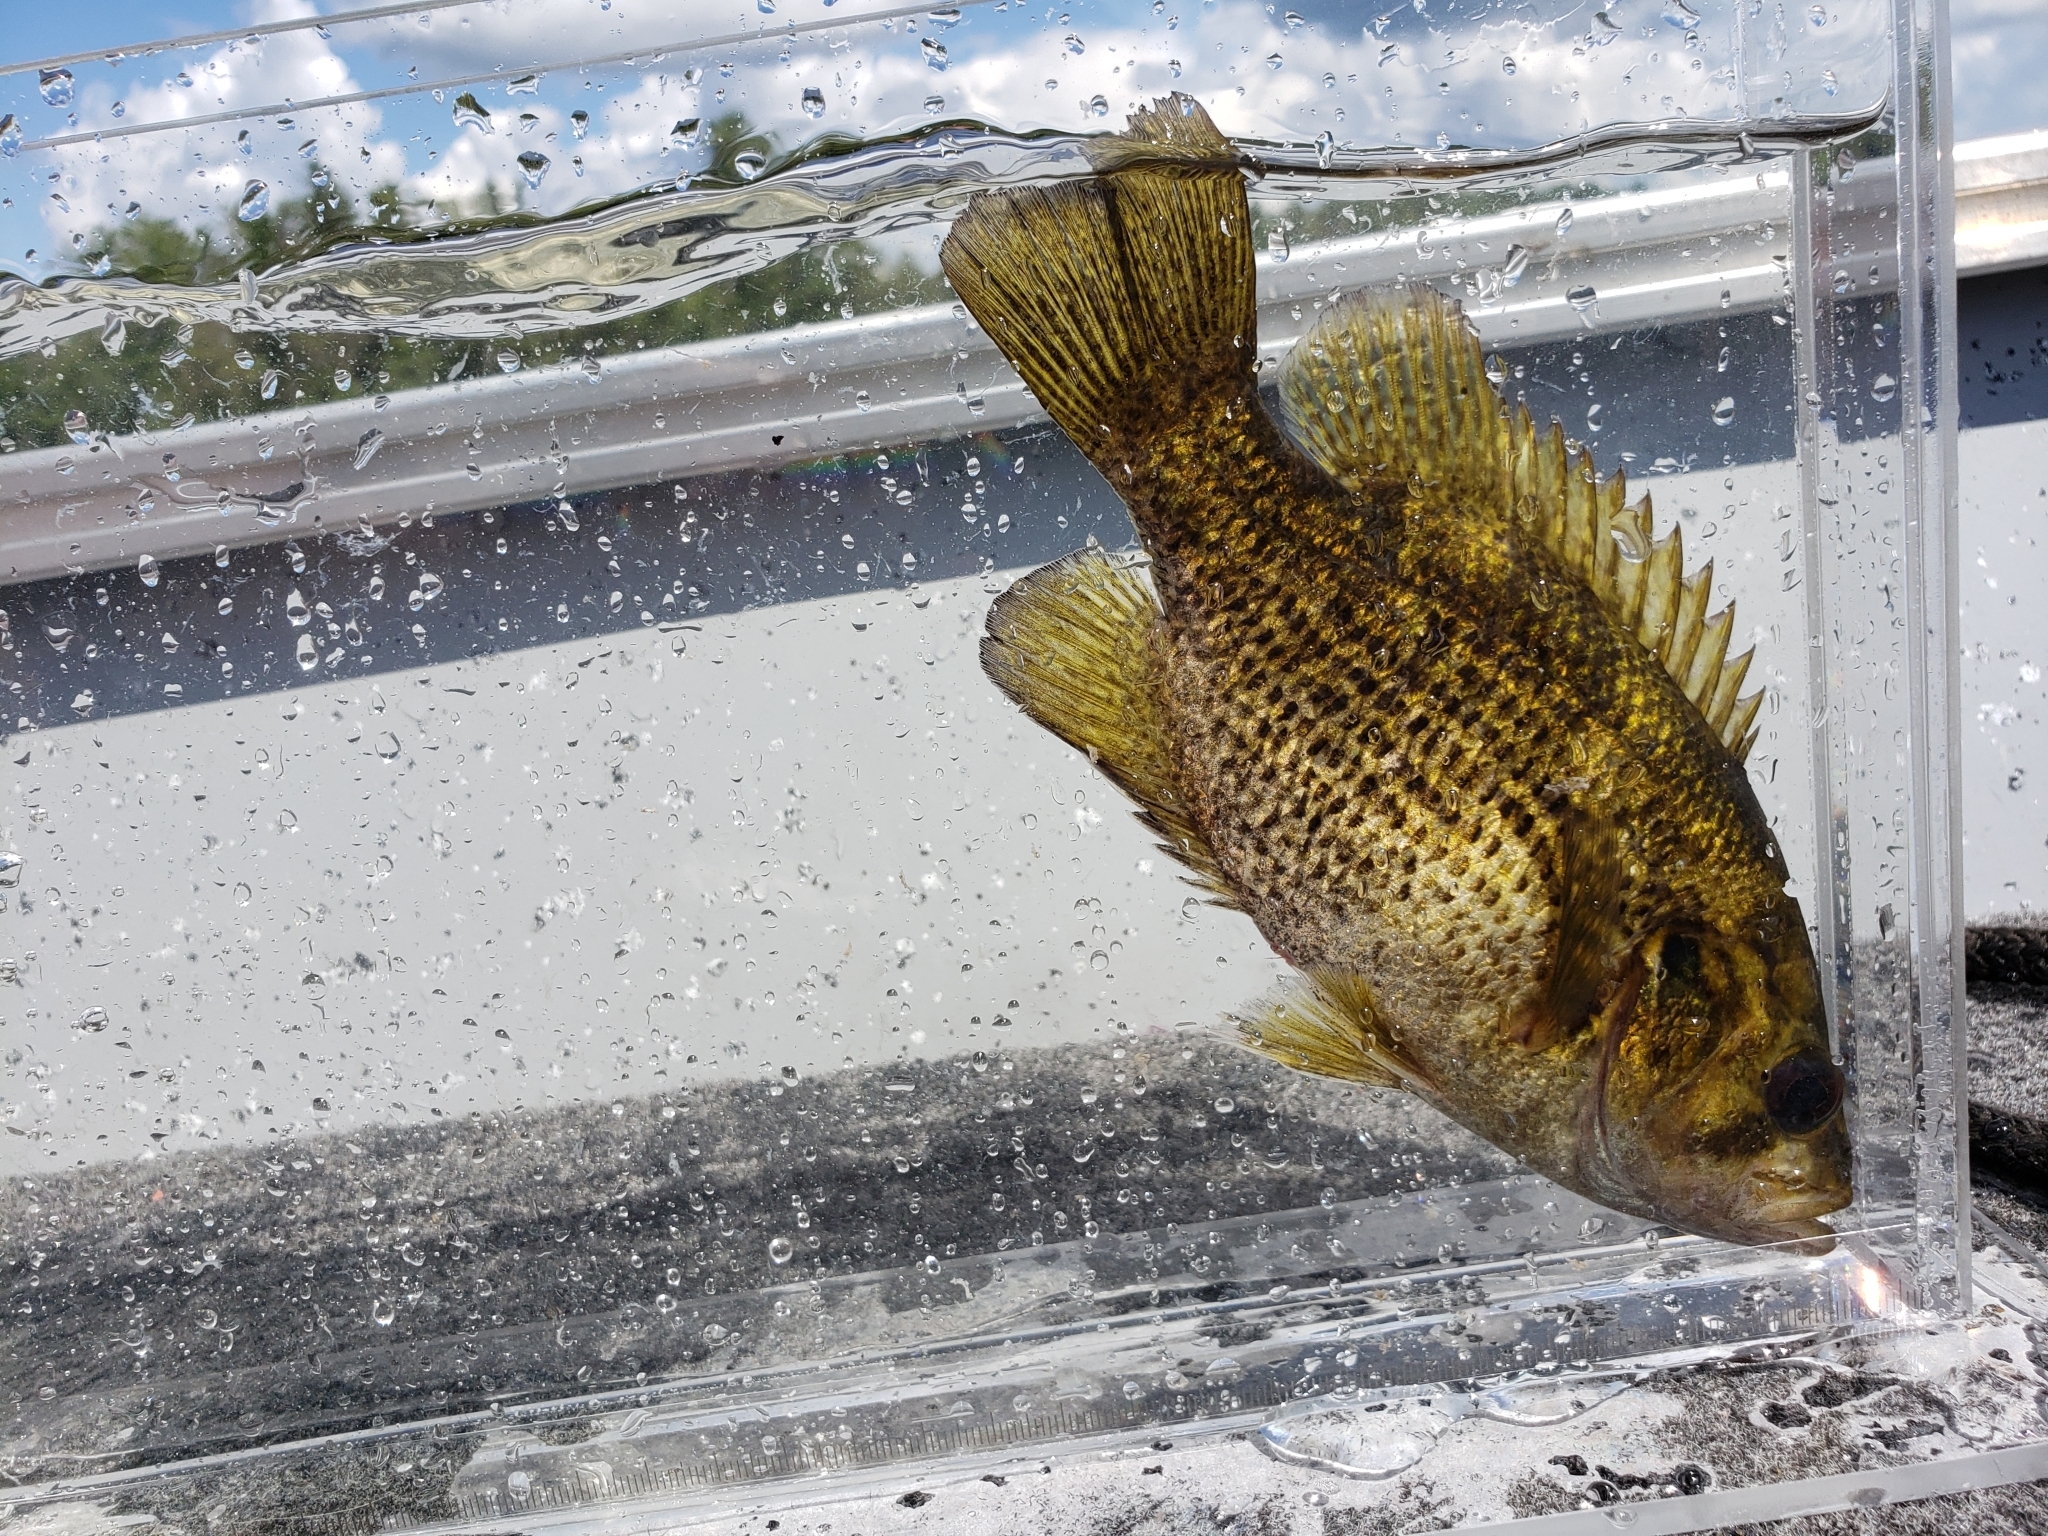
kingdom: Animalia
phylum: Chordata
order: Perciformes
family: Centrarchidae
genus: Ambloplites
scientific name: Ambloplites rupestris
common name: Rock bass
